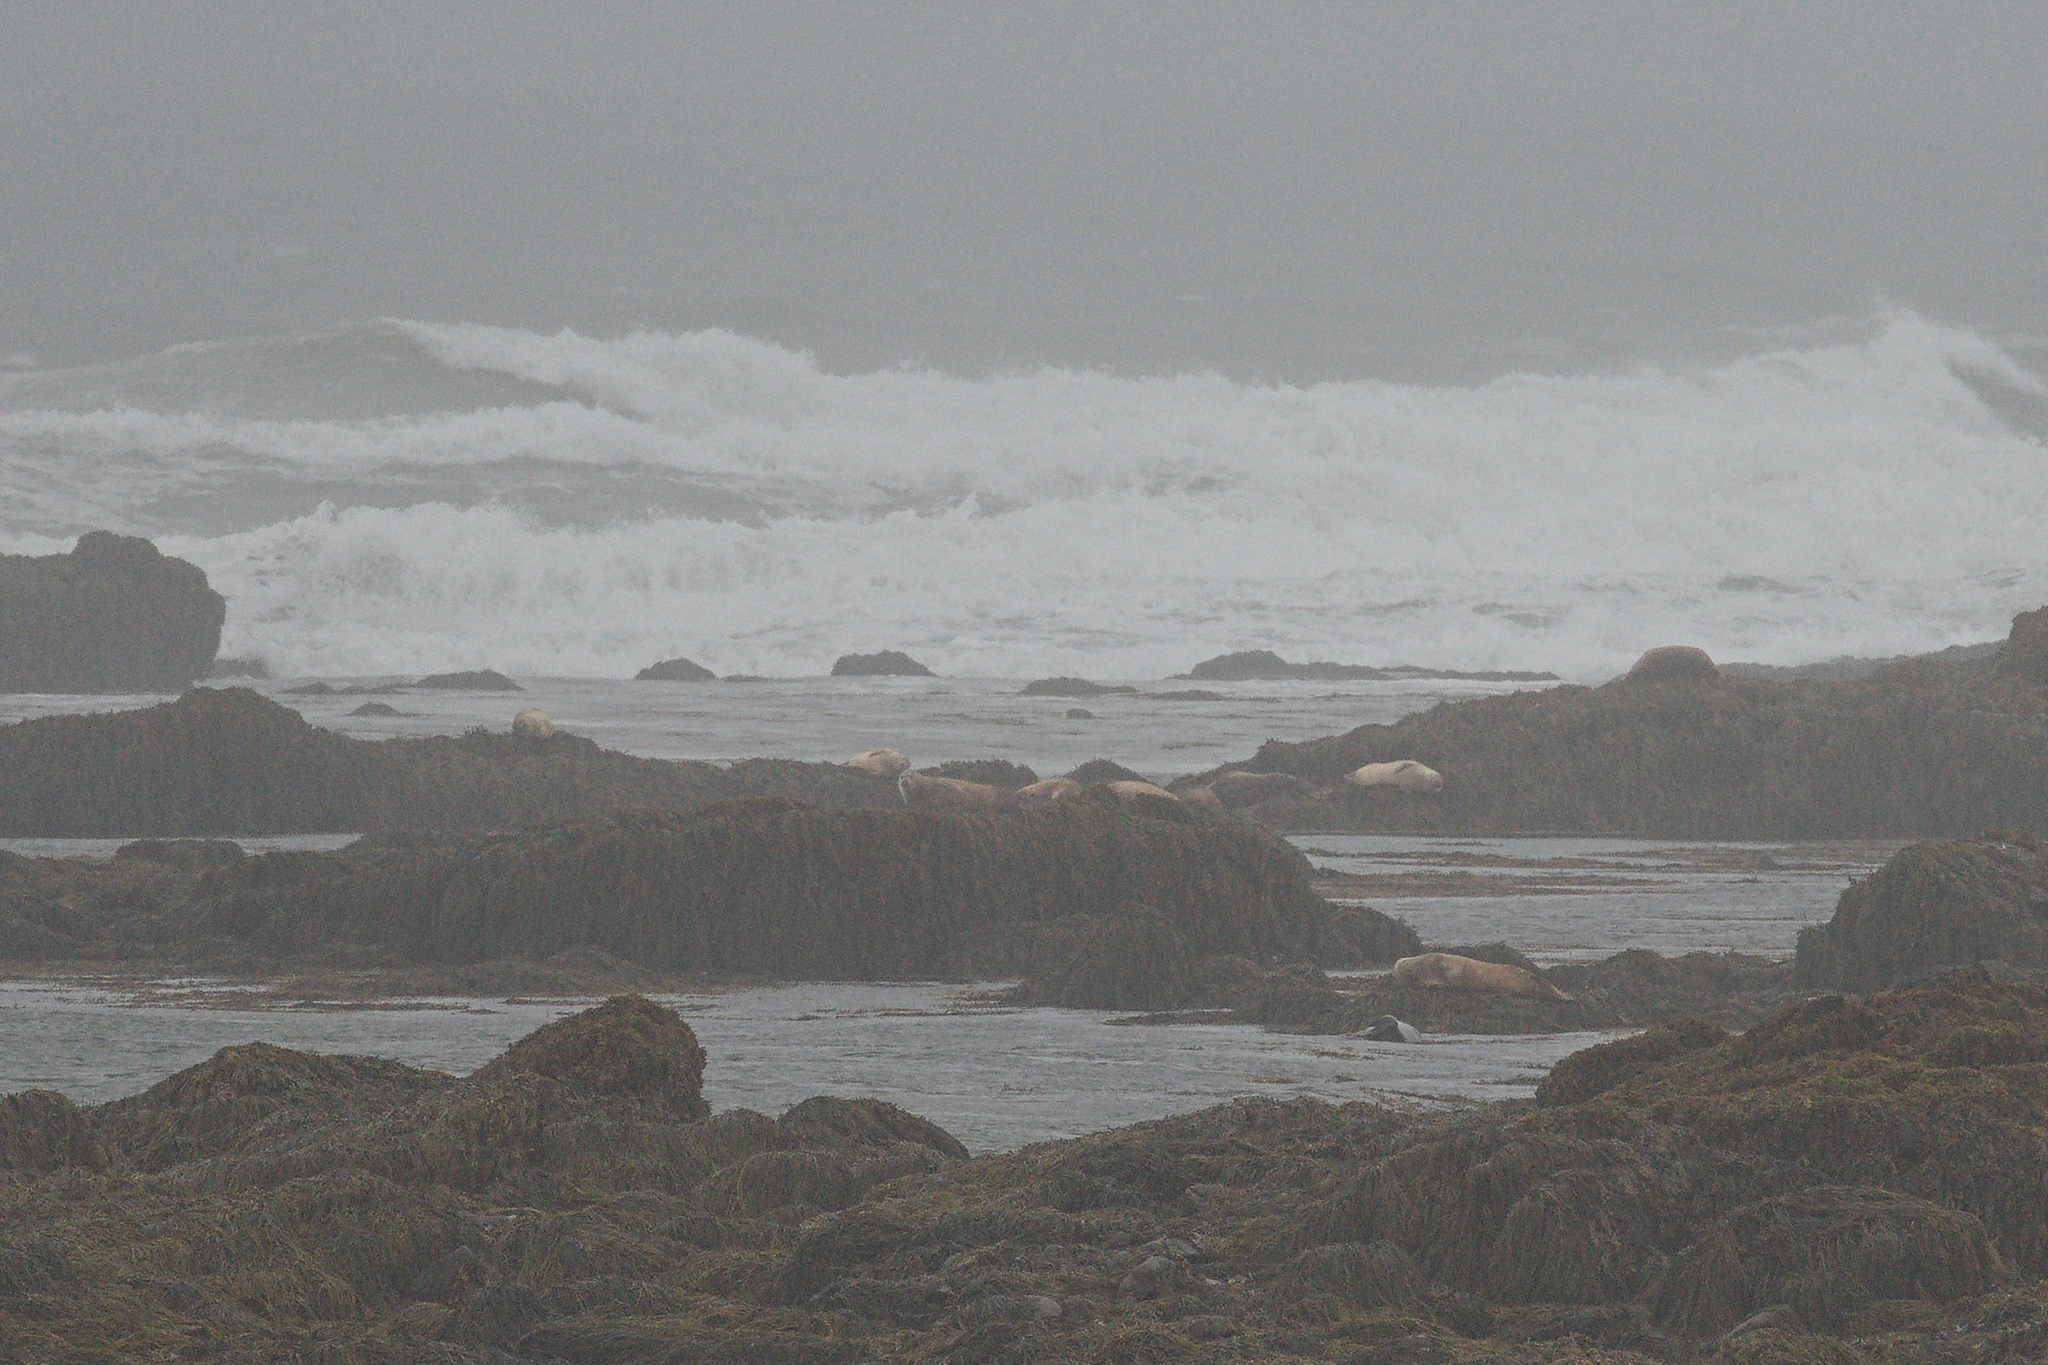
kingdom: Animalia
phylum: Chordata
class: Mammalia
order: Carnivora
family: Phocidae
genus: Phoca
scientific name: Phoca vitulina
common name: Harbor seal
